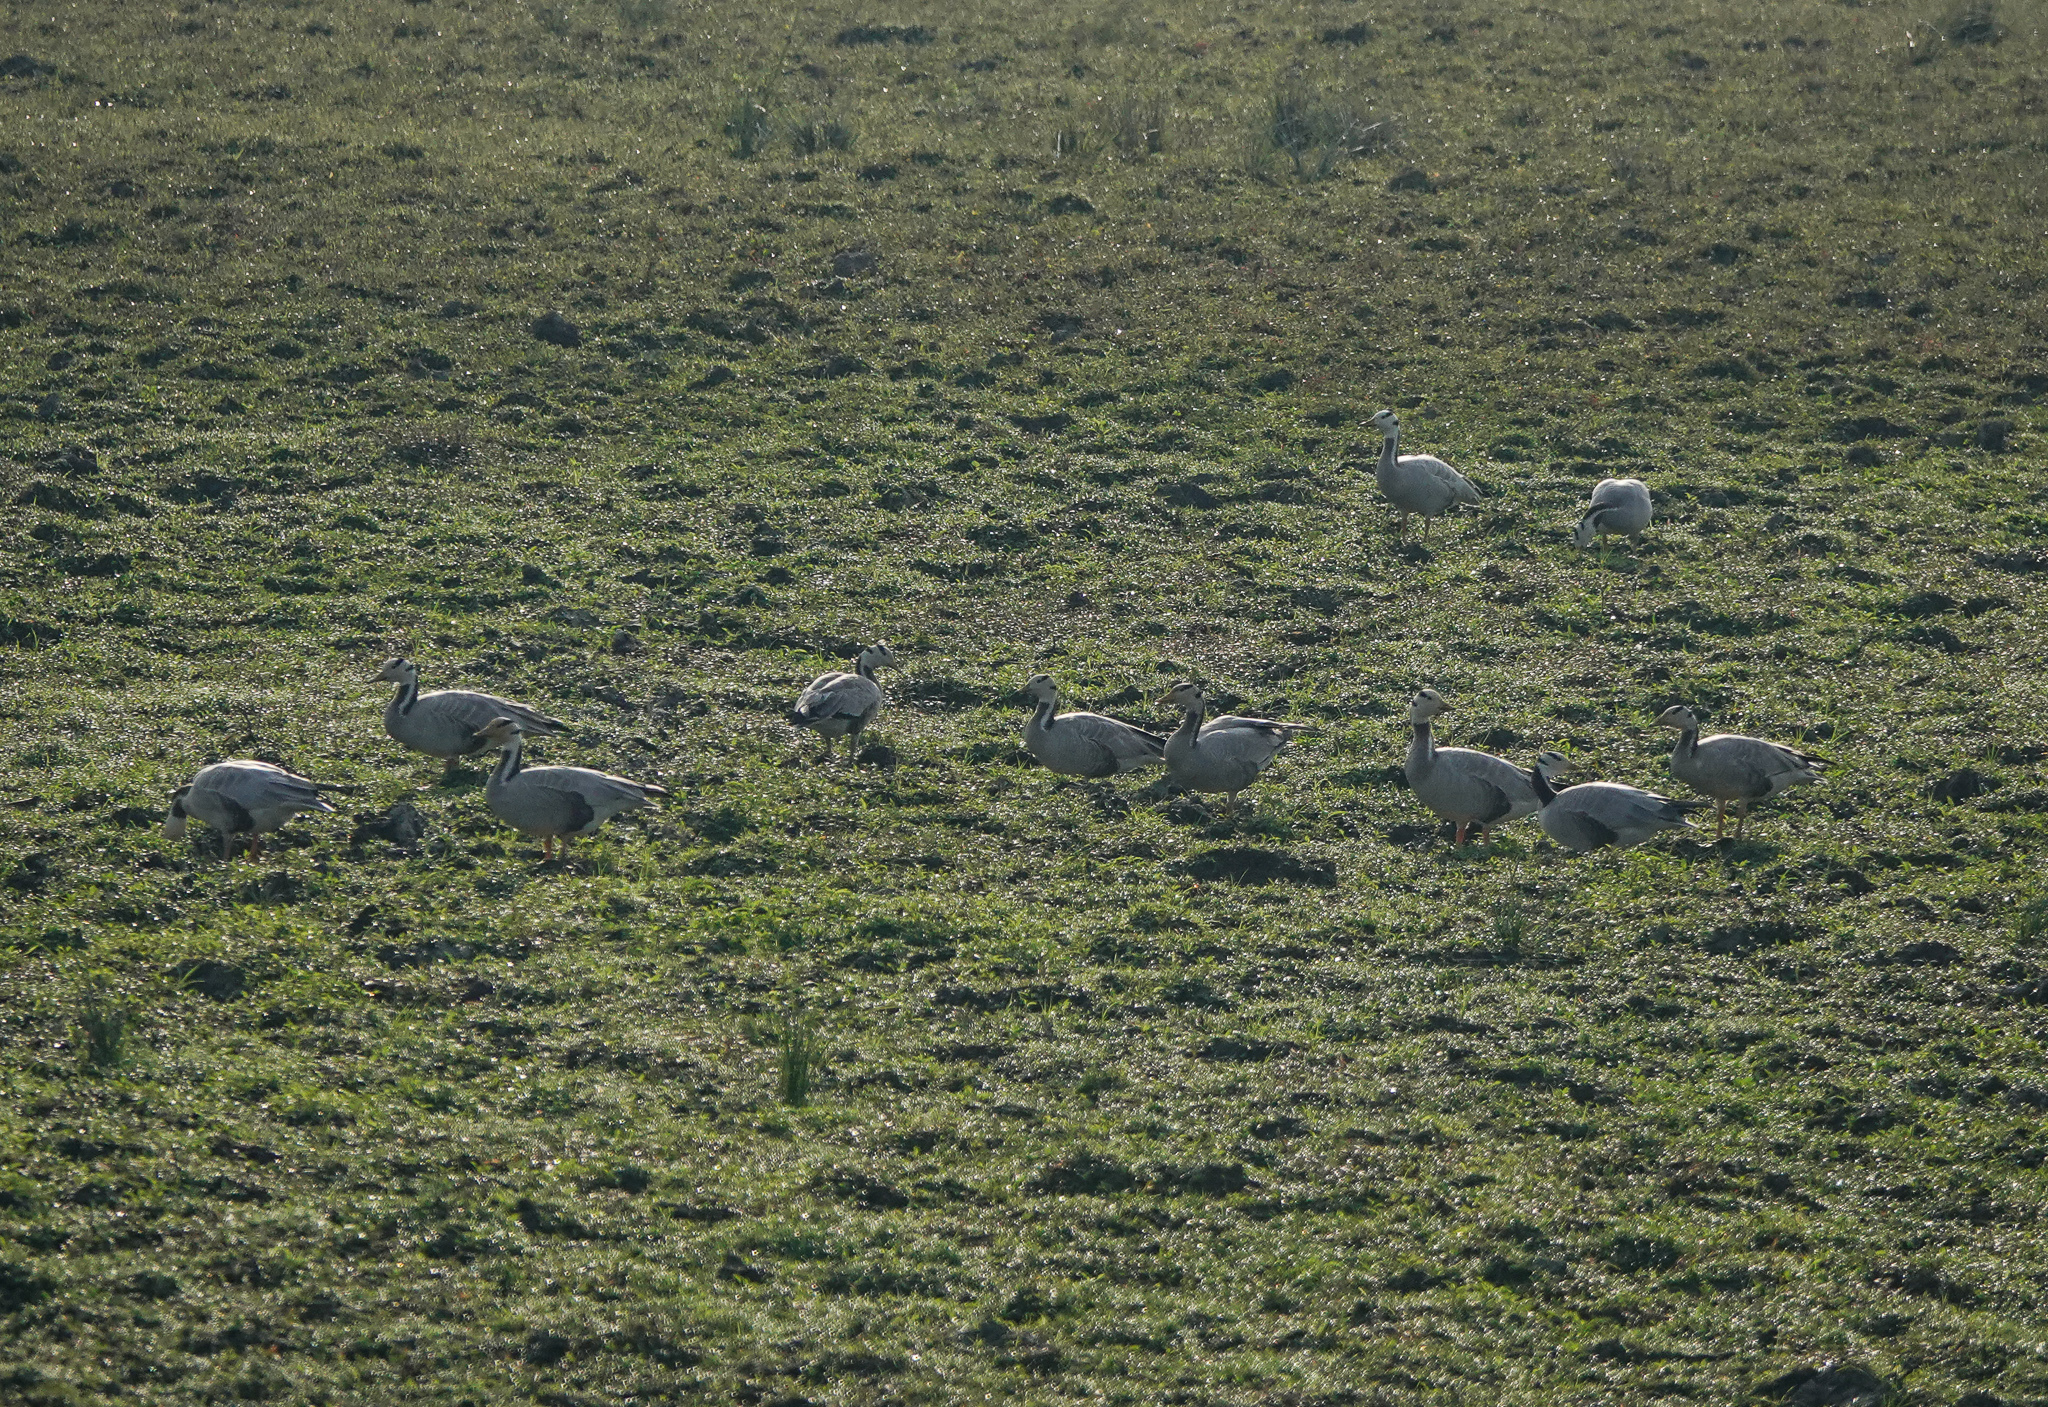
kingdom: Animalia
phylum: Chordata
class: Aves
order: Anseriformes
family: Anatidae
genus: Anser
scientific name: Anser indicus
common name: Bar-headed goose
